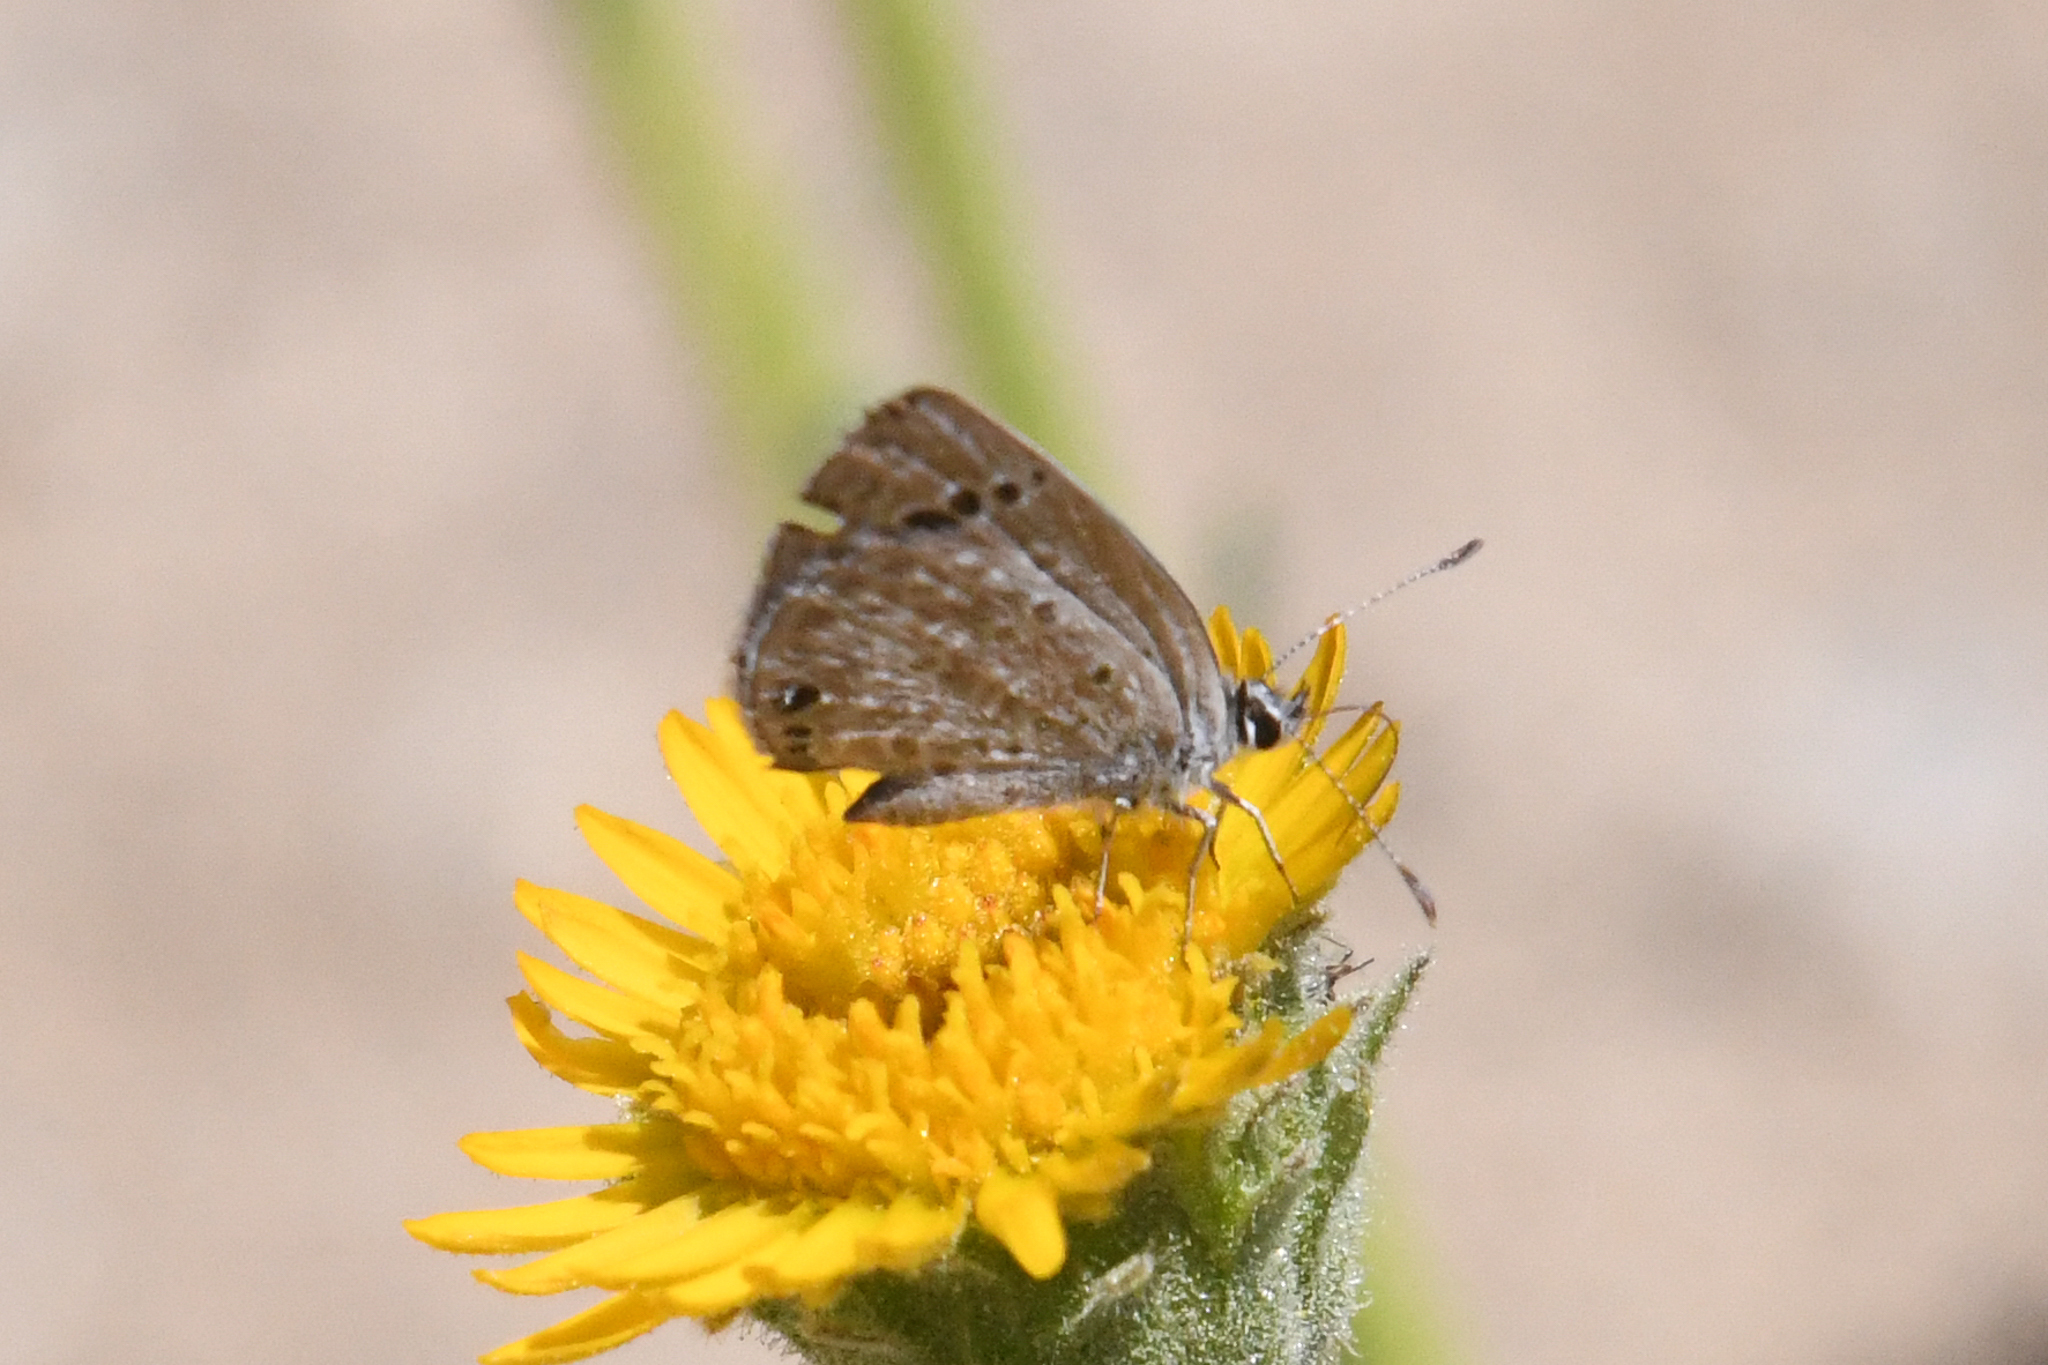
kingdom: Animalia
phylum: Arthropoda
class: Insecta
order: Lepidoptera
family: Lycaenidae
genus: Echinargus
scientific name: Echinargus isola
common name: Reakirt's blue
